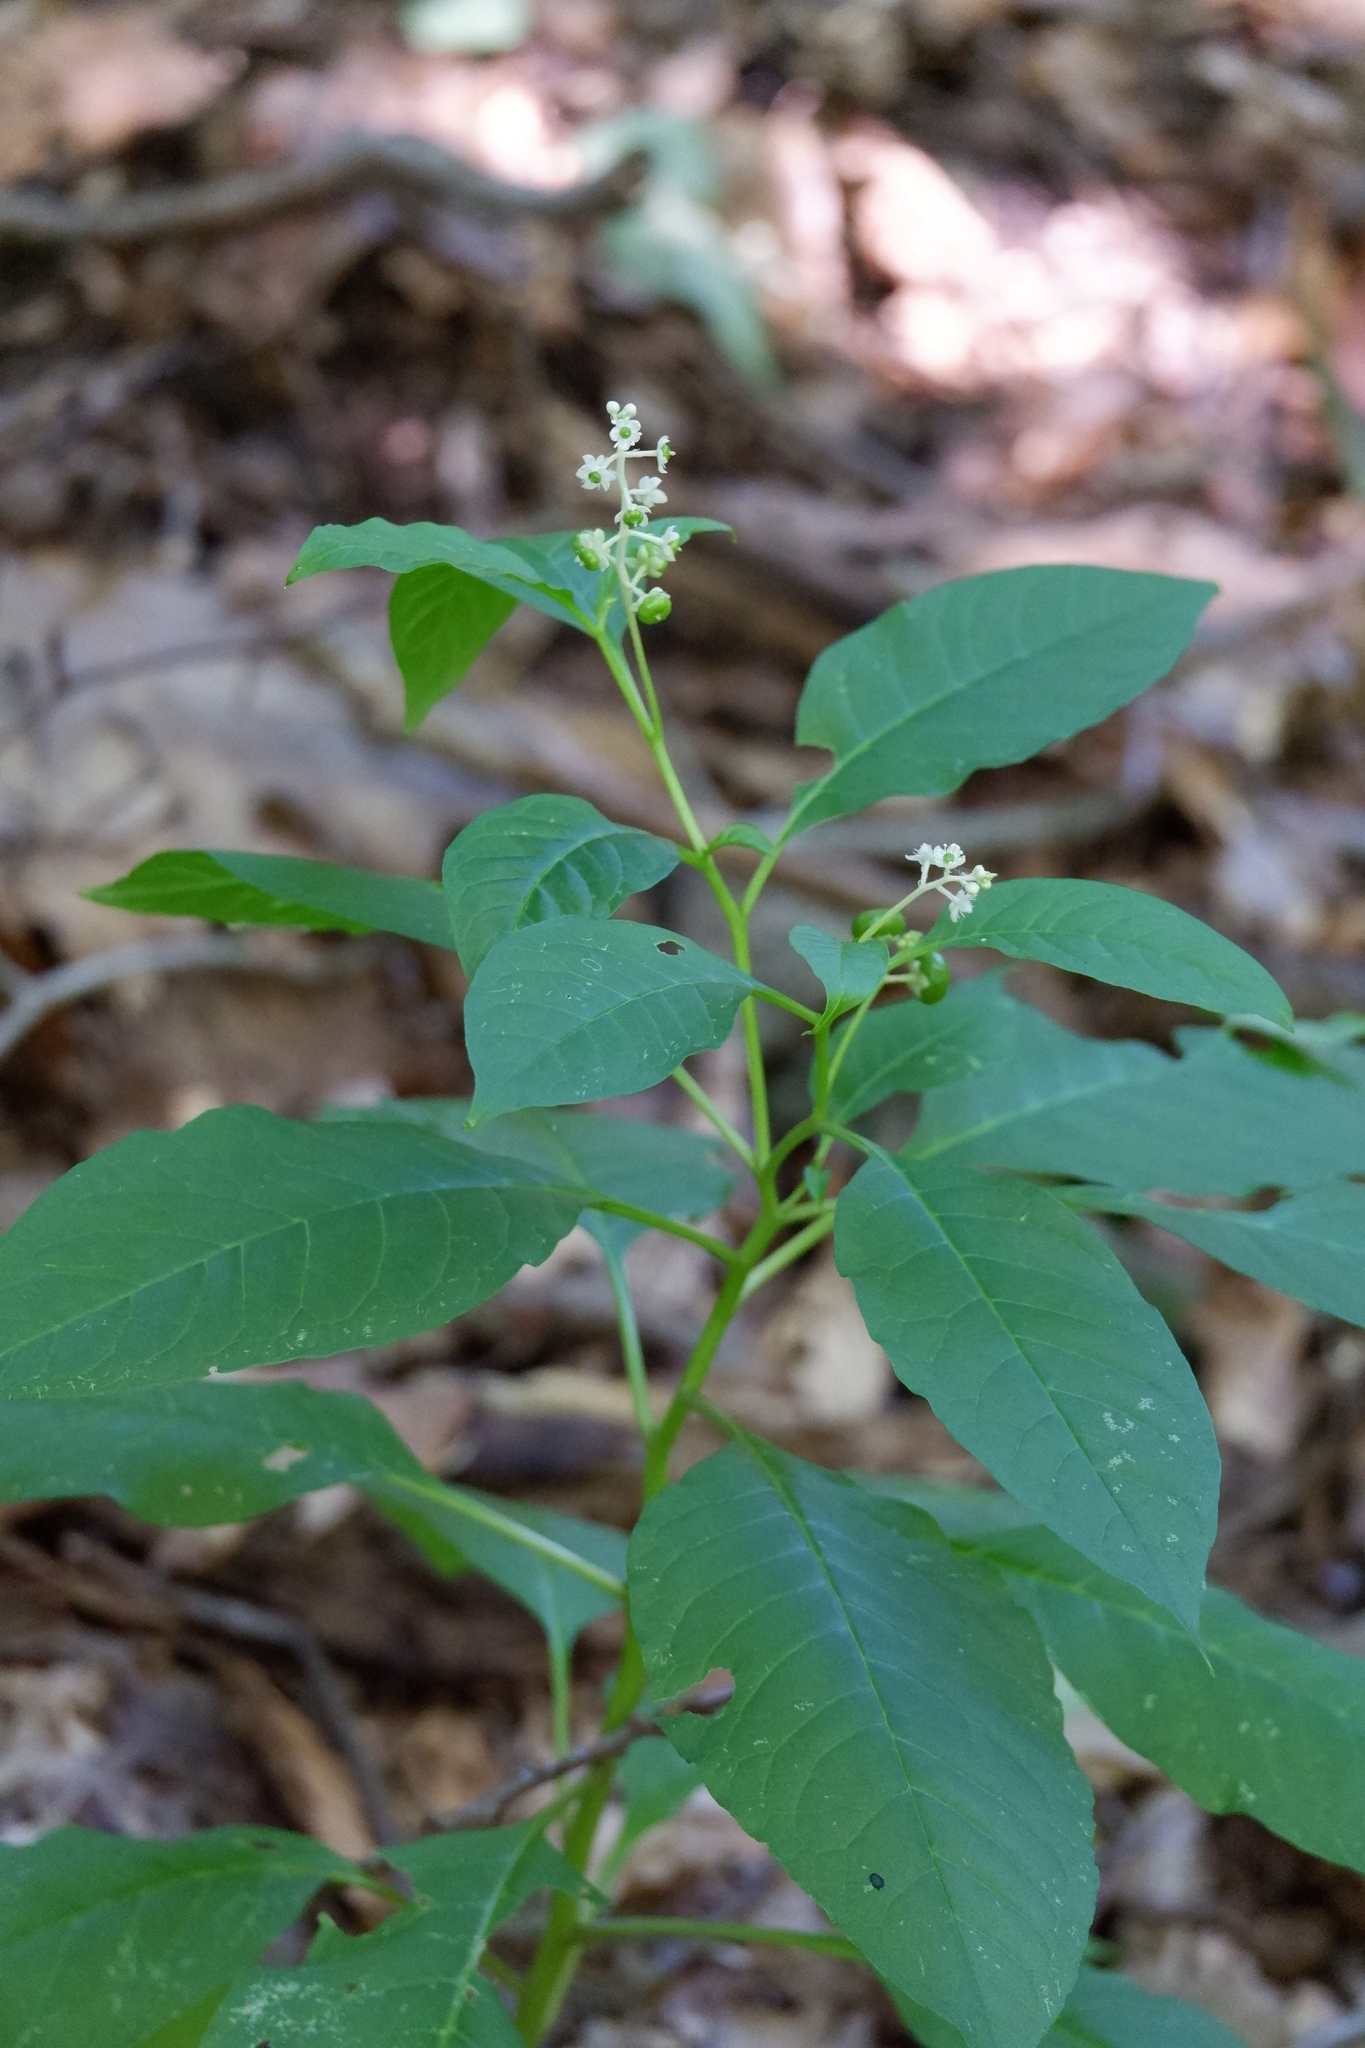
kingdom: Plantae
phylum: Tracheophyta
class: Magnoliopsida
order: Caryophyllales
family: Phytolaccaceae
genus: Phytolacca
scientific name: Phytolacca americana
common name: American pokeweed
